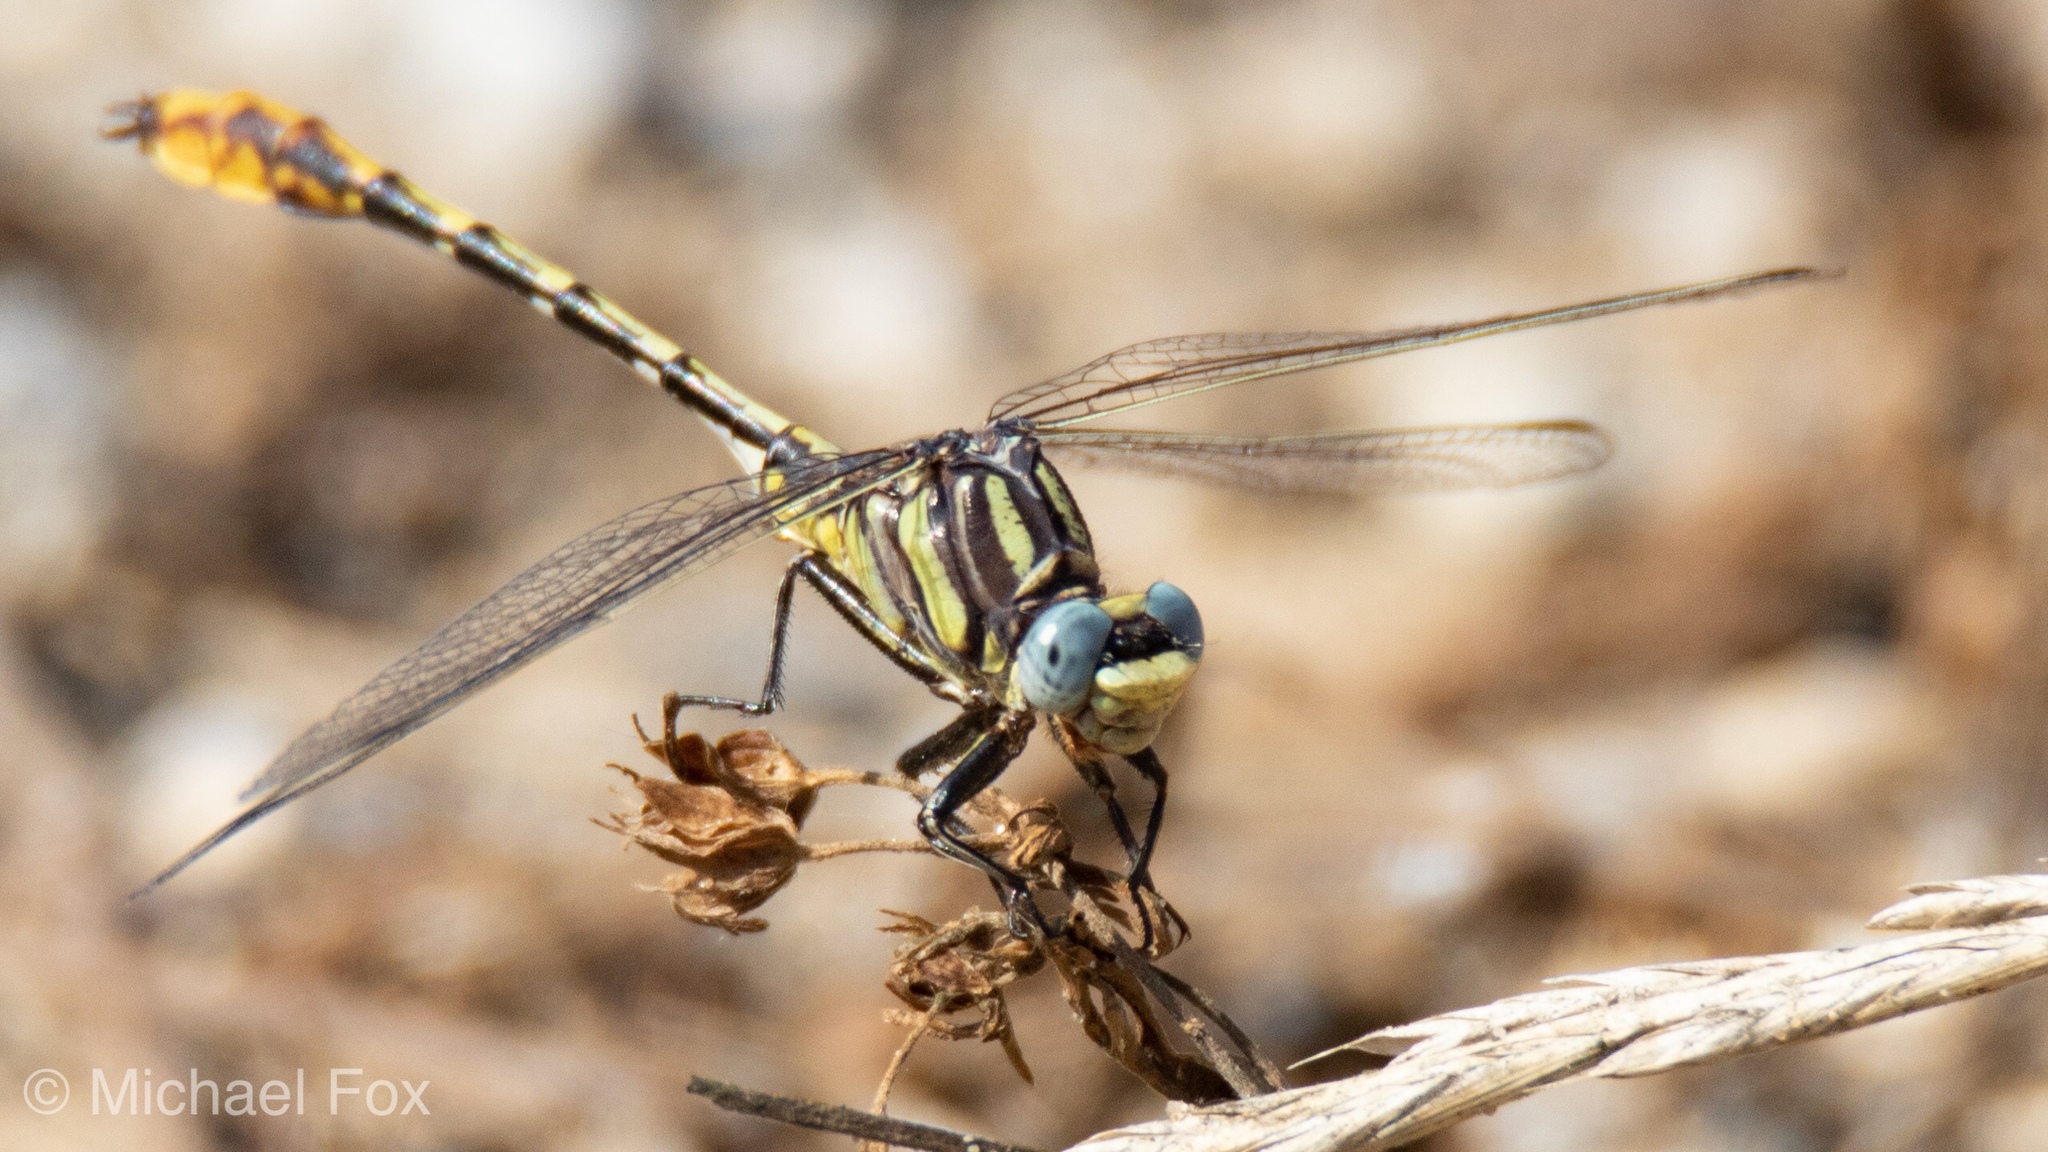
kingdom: Animalia
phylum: Arthropoda
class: Insecta
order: Odonata
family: Gomphidae
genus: Phanogomphus
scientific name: Phanogomphus militaris
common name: Sulphur-tipped clubtail
